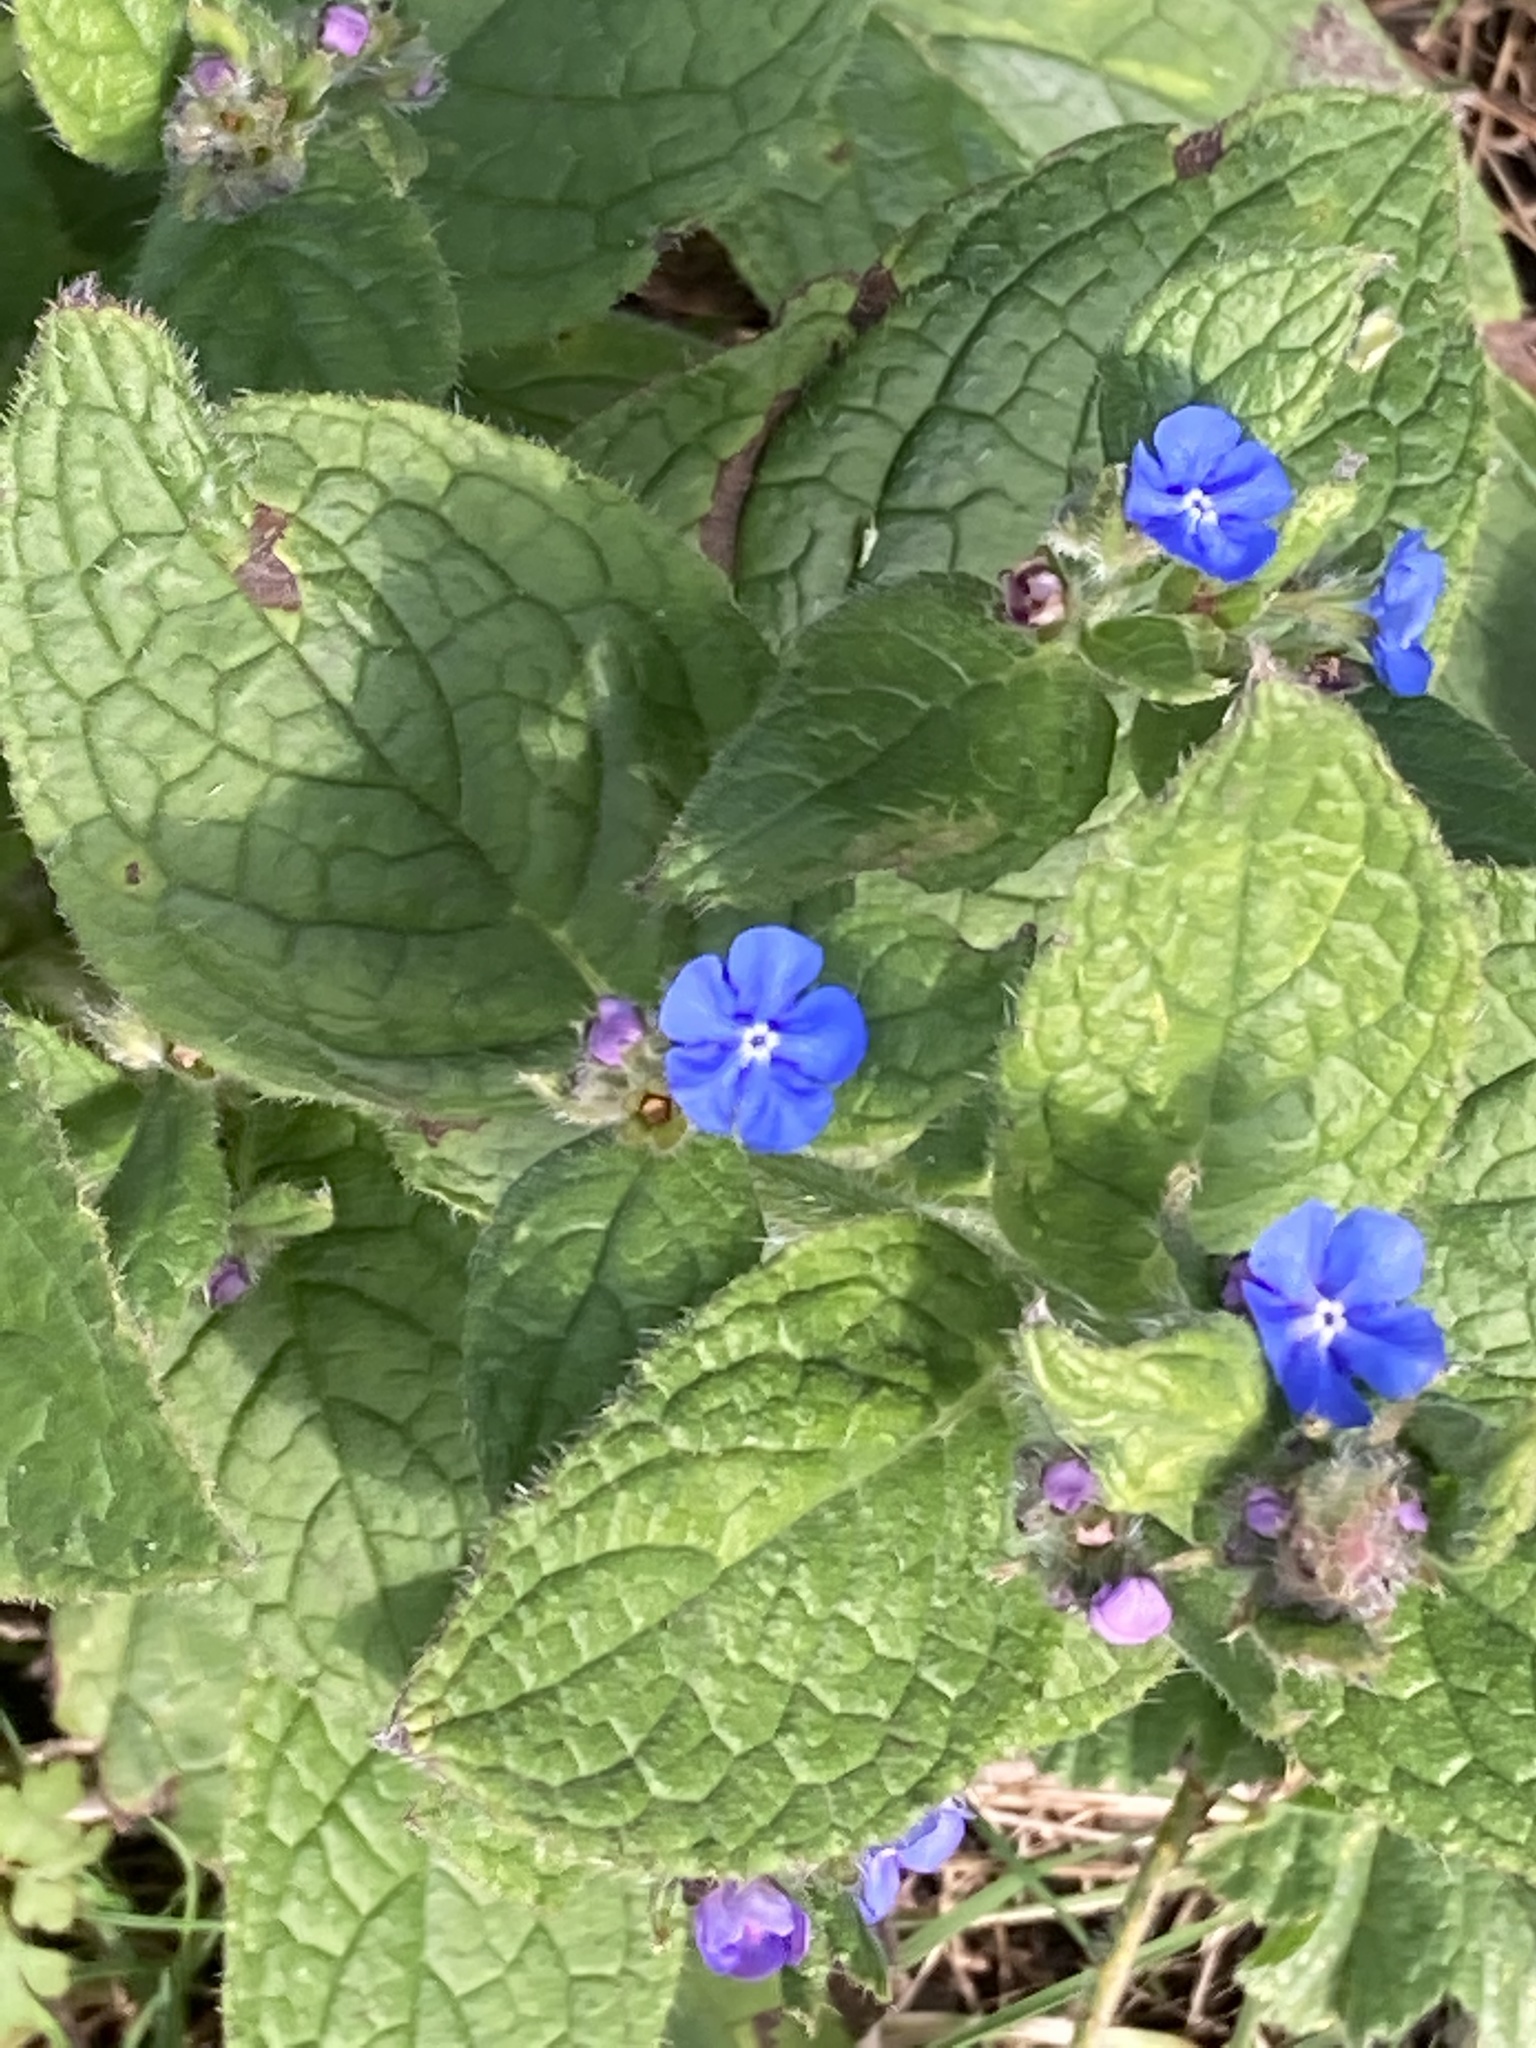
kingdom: Plantae
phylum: Tracheophyta
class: Magnoliopsida
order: Boraginales
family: Boraginaceae
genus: Pentaglottis
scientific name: Pentaglottis sempervirens
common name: Green alkanet
